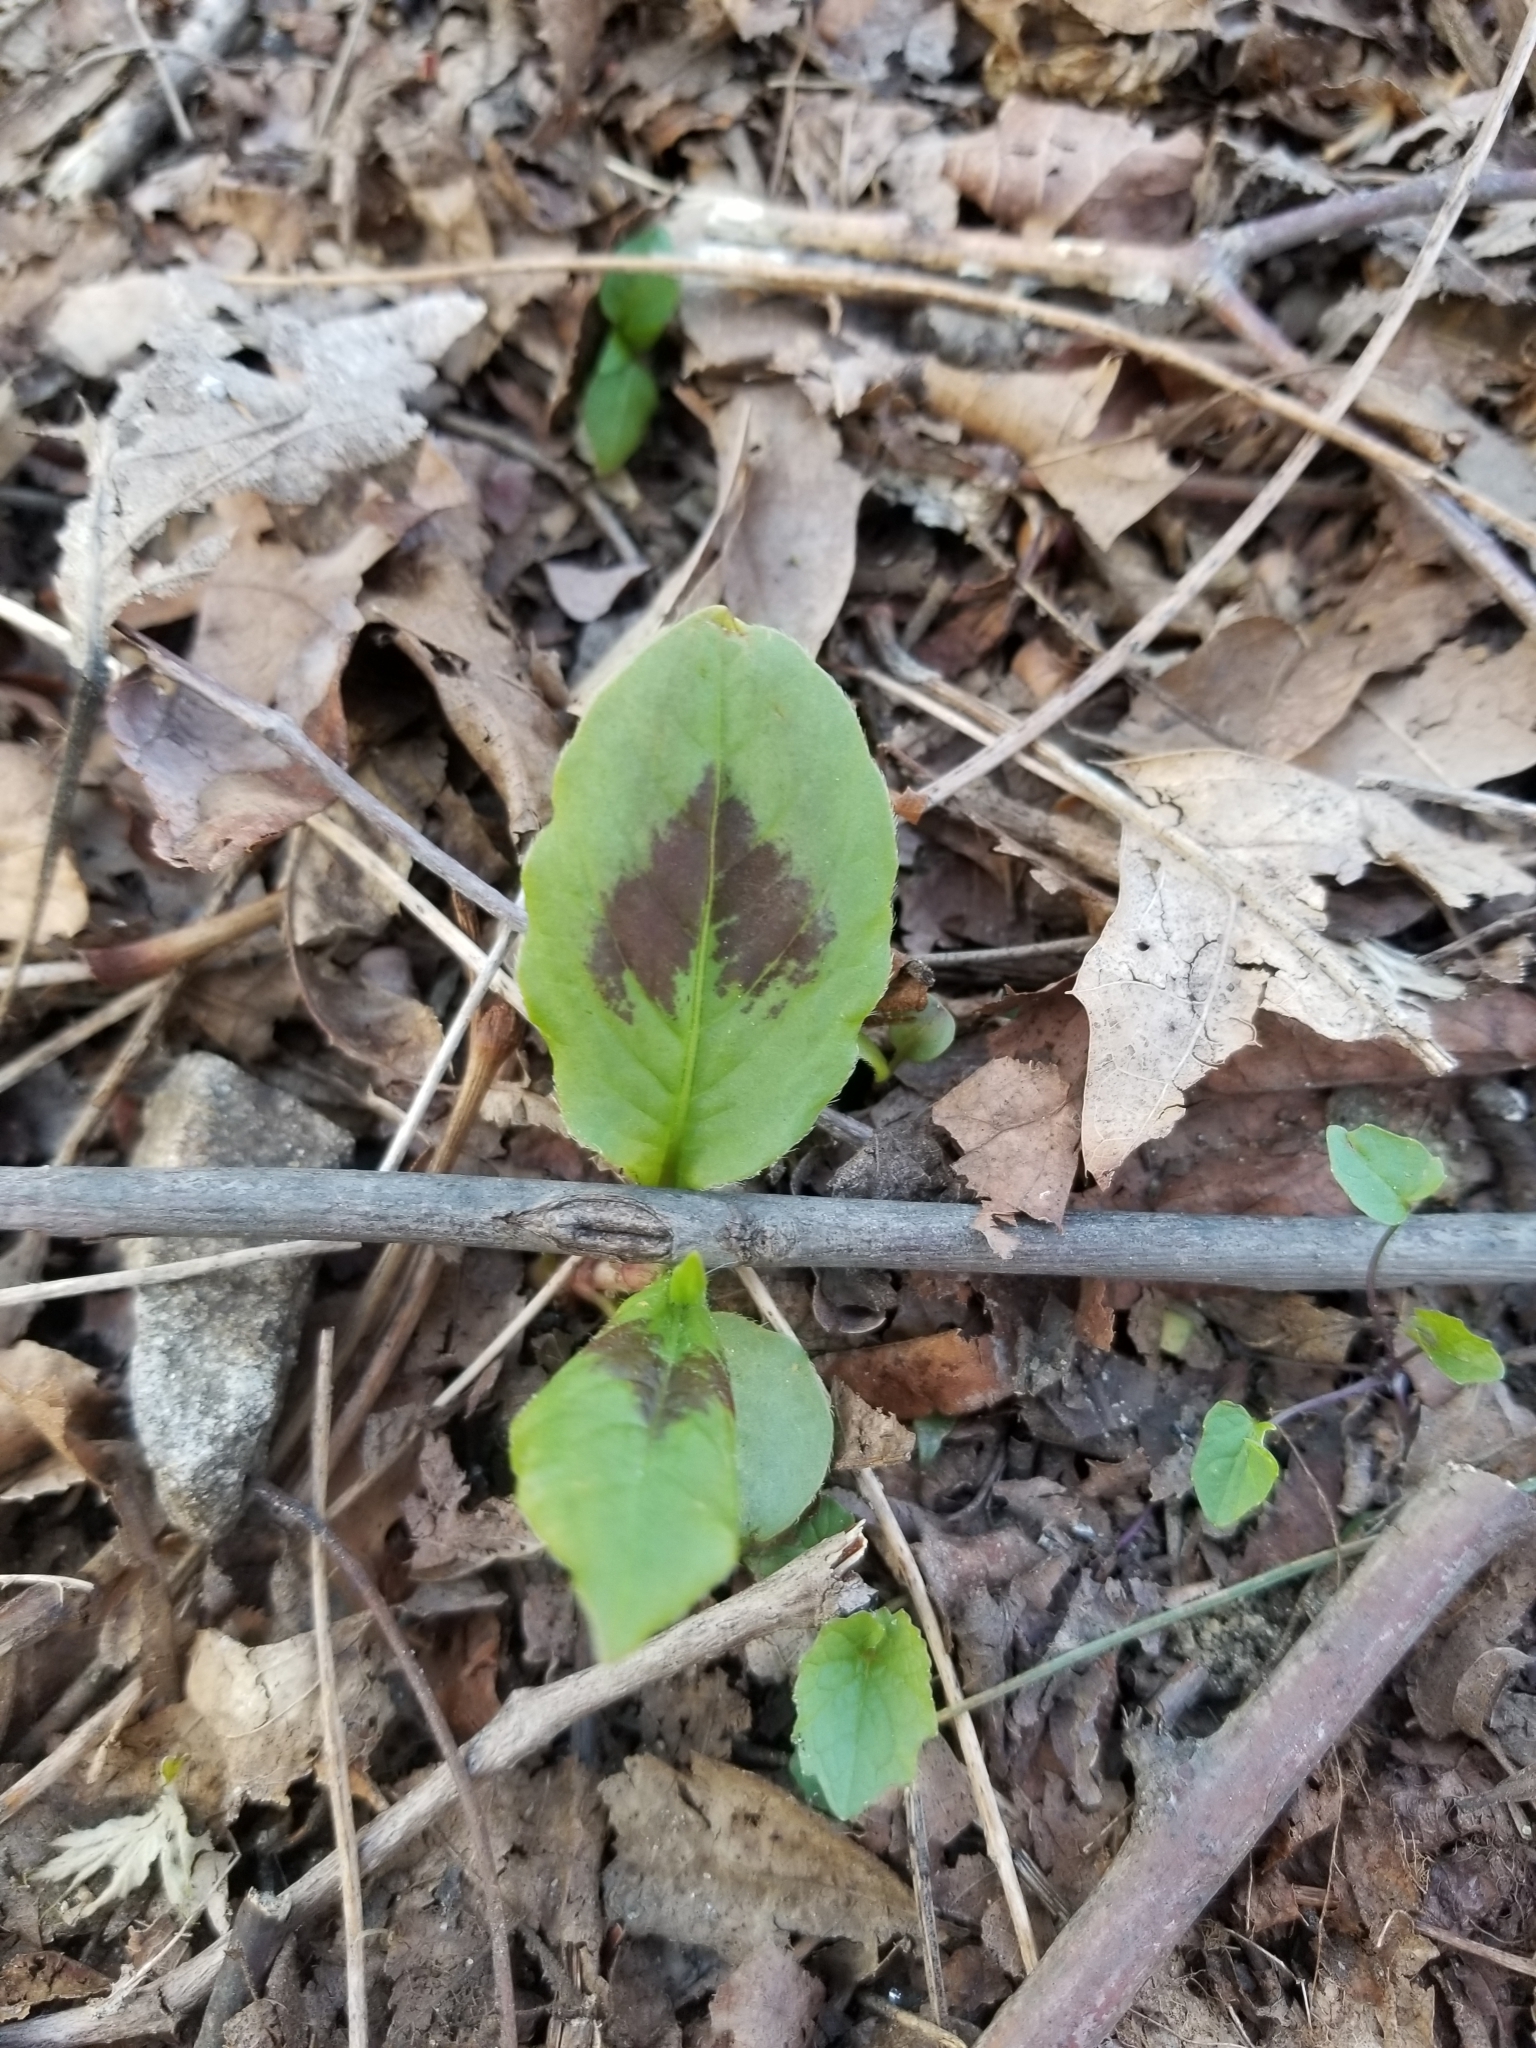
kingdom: Plantae
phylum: Tracheophyta
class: Magnoliopsida
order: Caryophyllales
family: Polygonaceae
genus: Persicaria
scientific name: Persicaria virginiana
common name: Jumpseed
